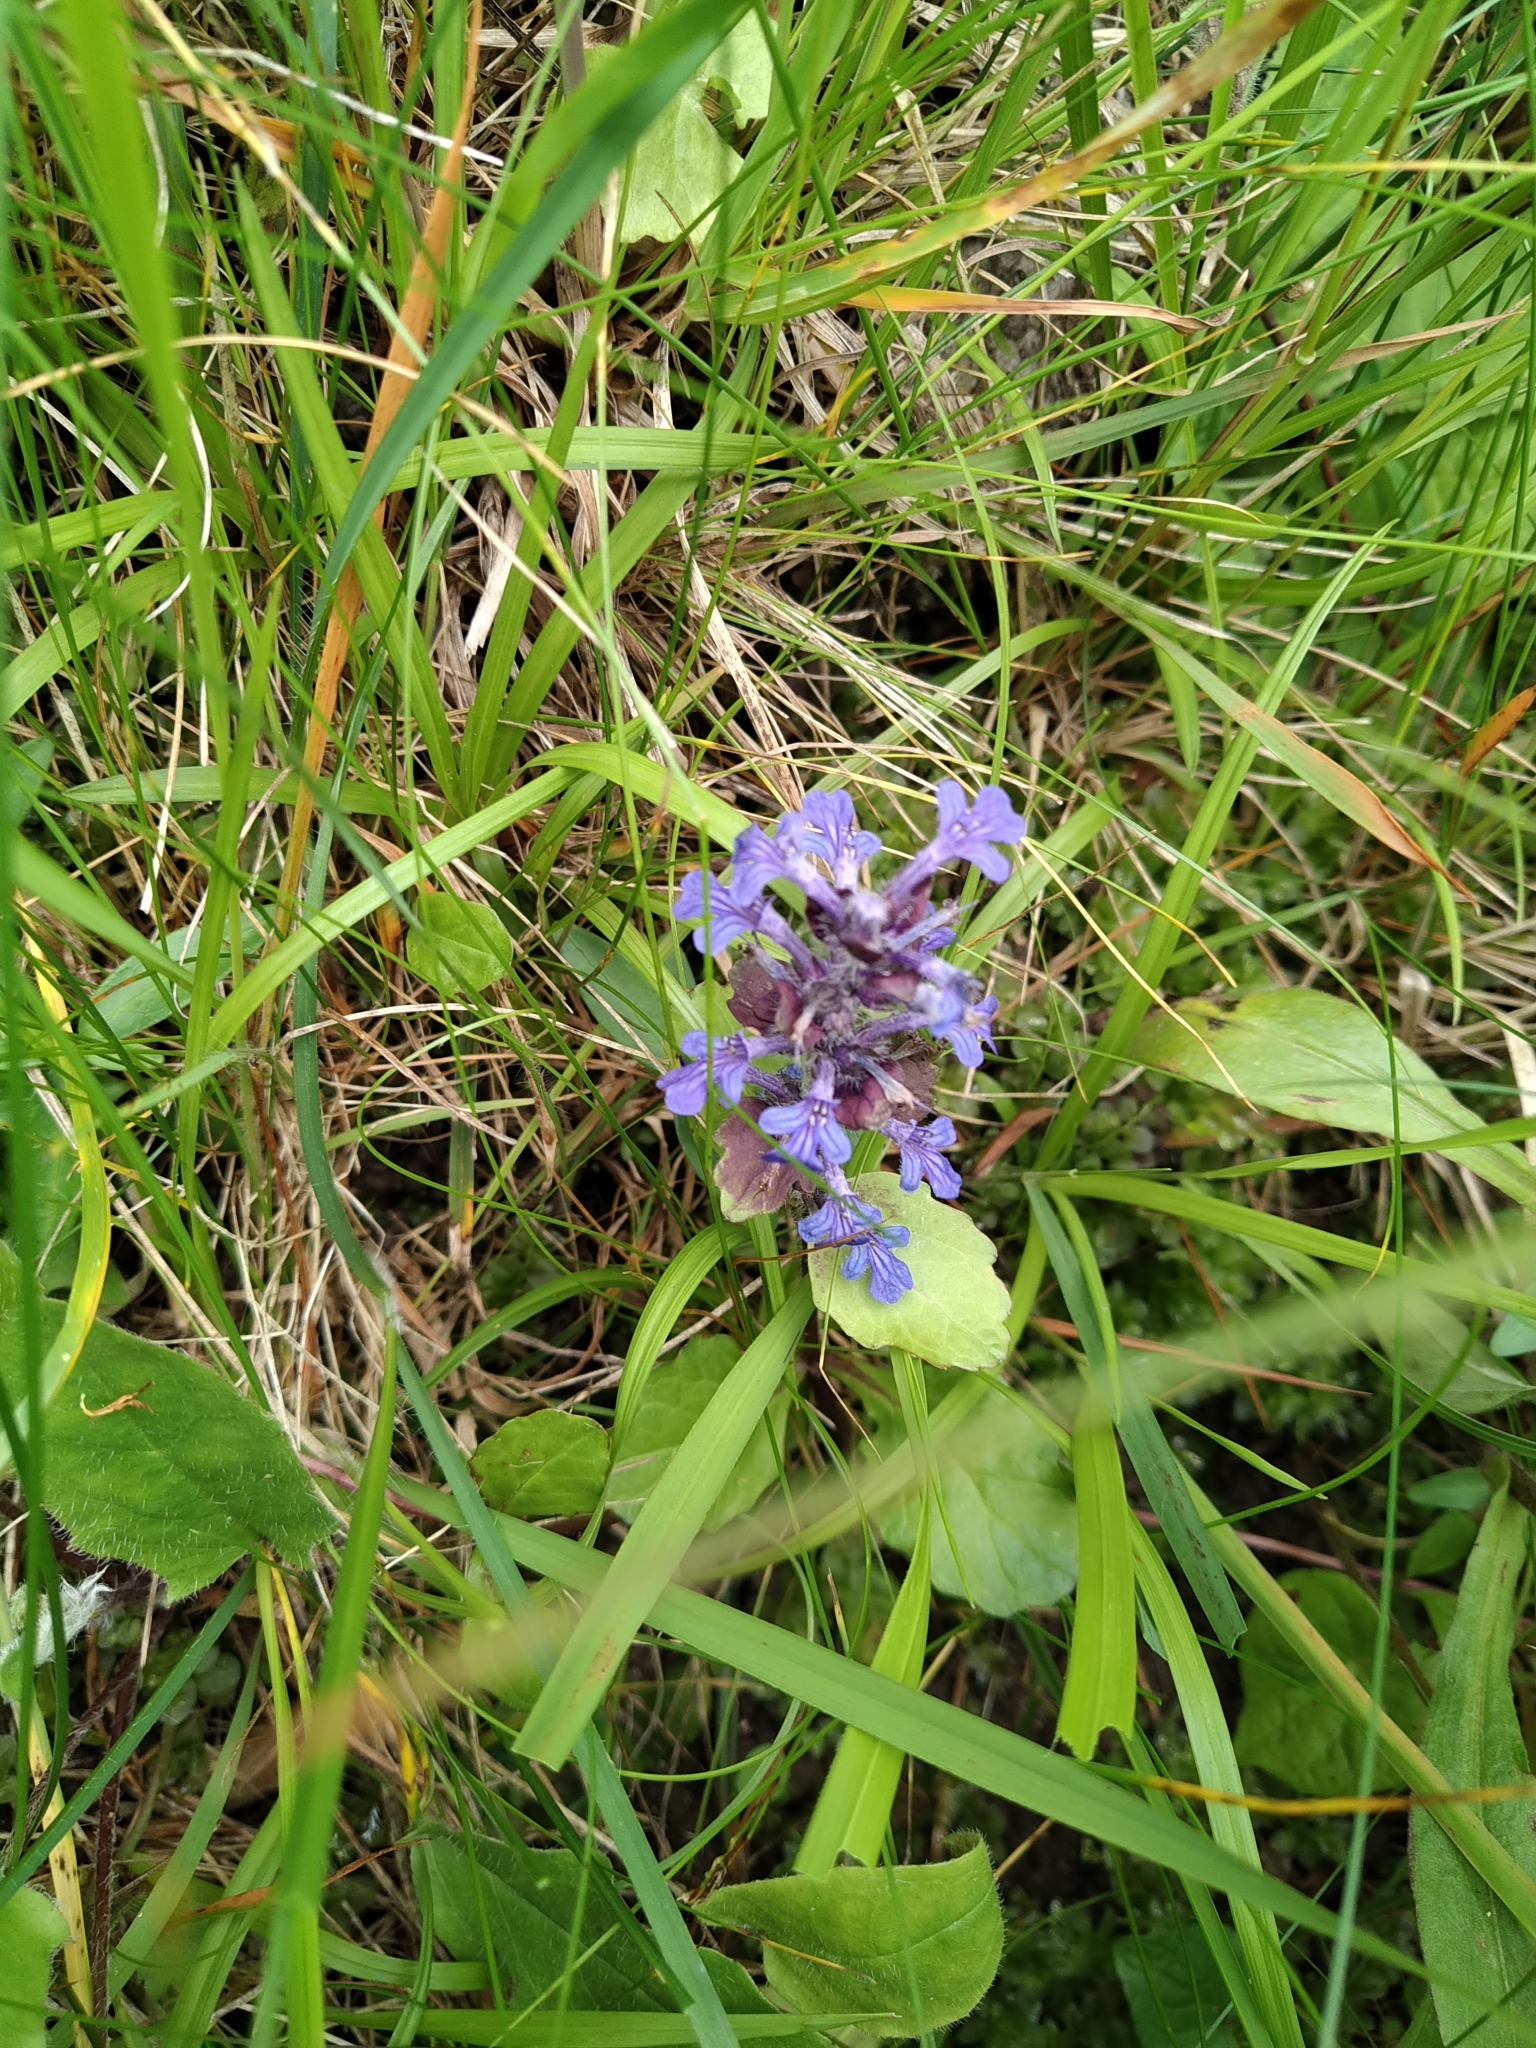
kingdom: Plantae
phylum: Tracheophyta
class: Magnoliopsida
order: Lamiales
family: Lamiaceae
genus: Ajuga
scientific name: Ajuga reptans
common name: Bugle
